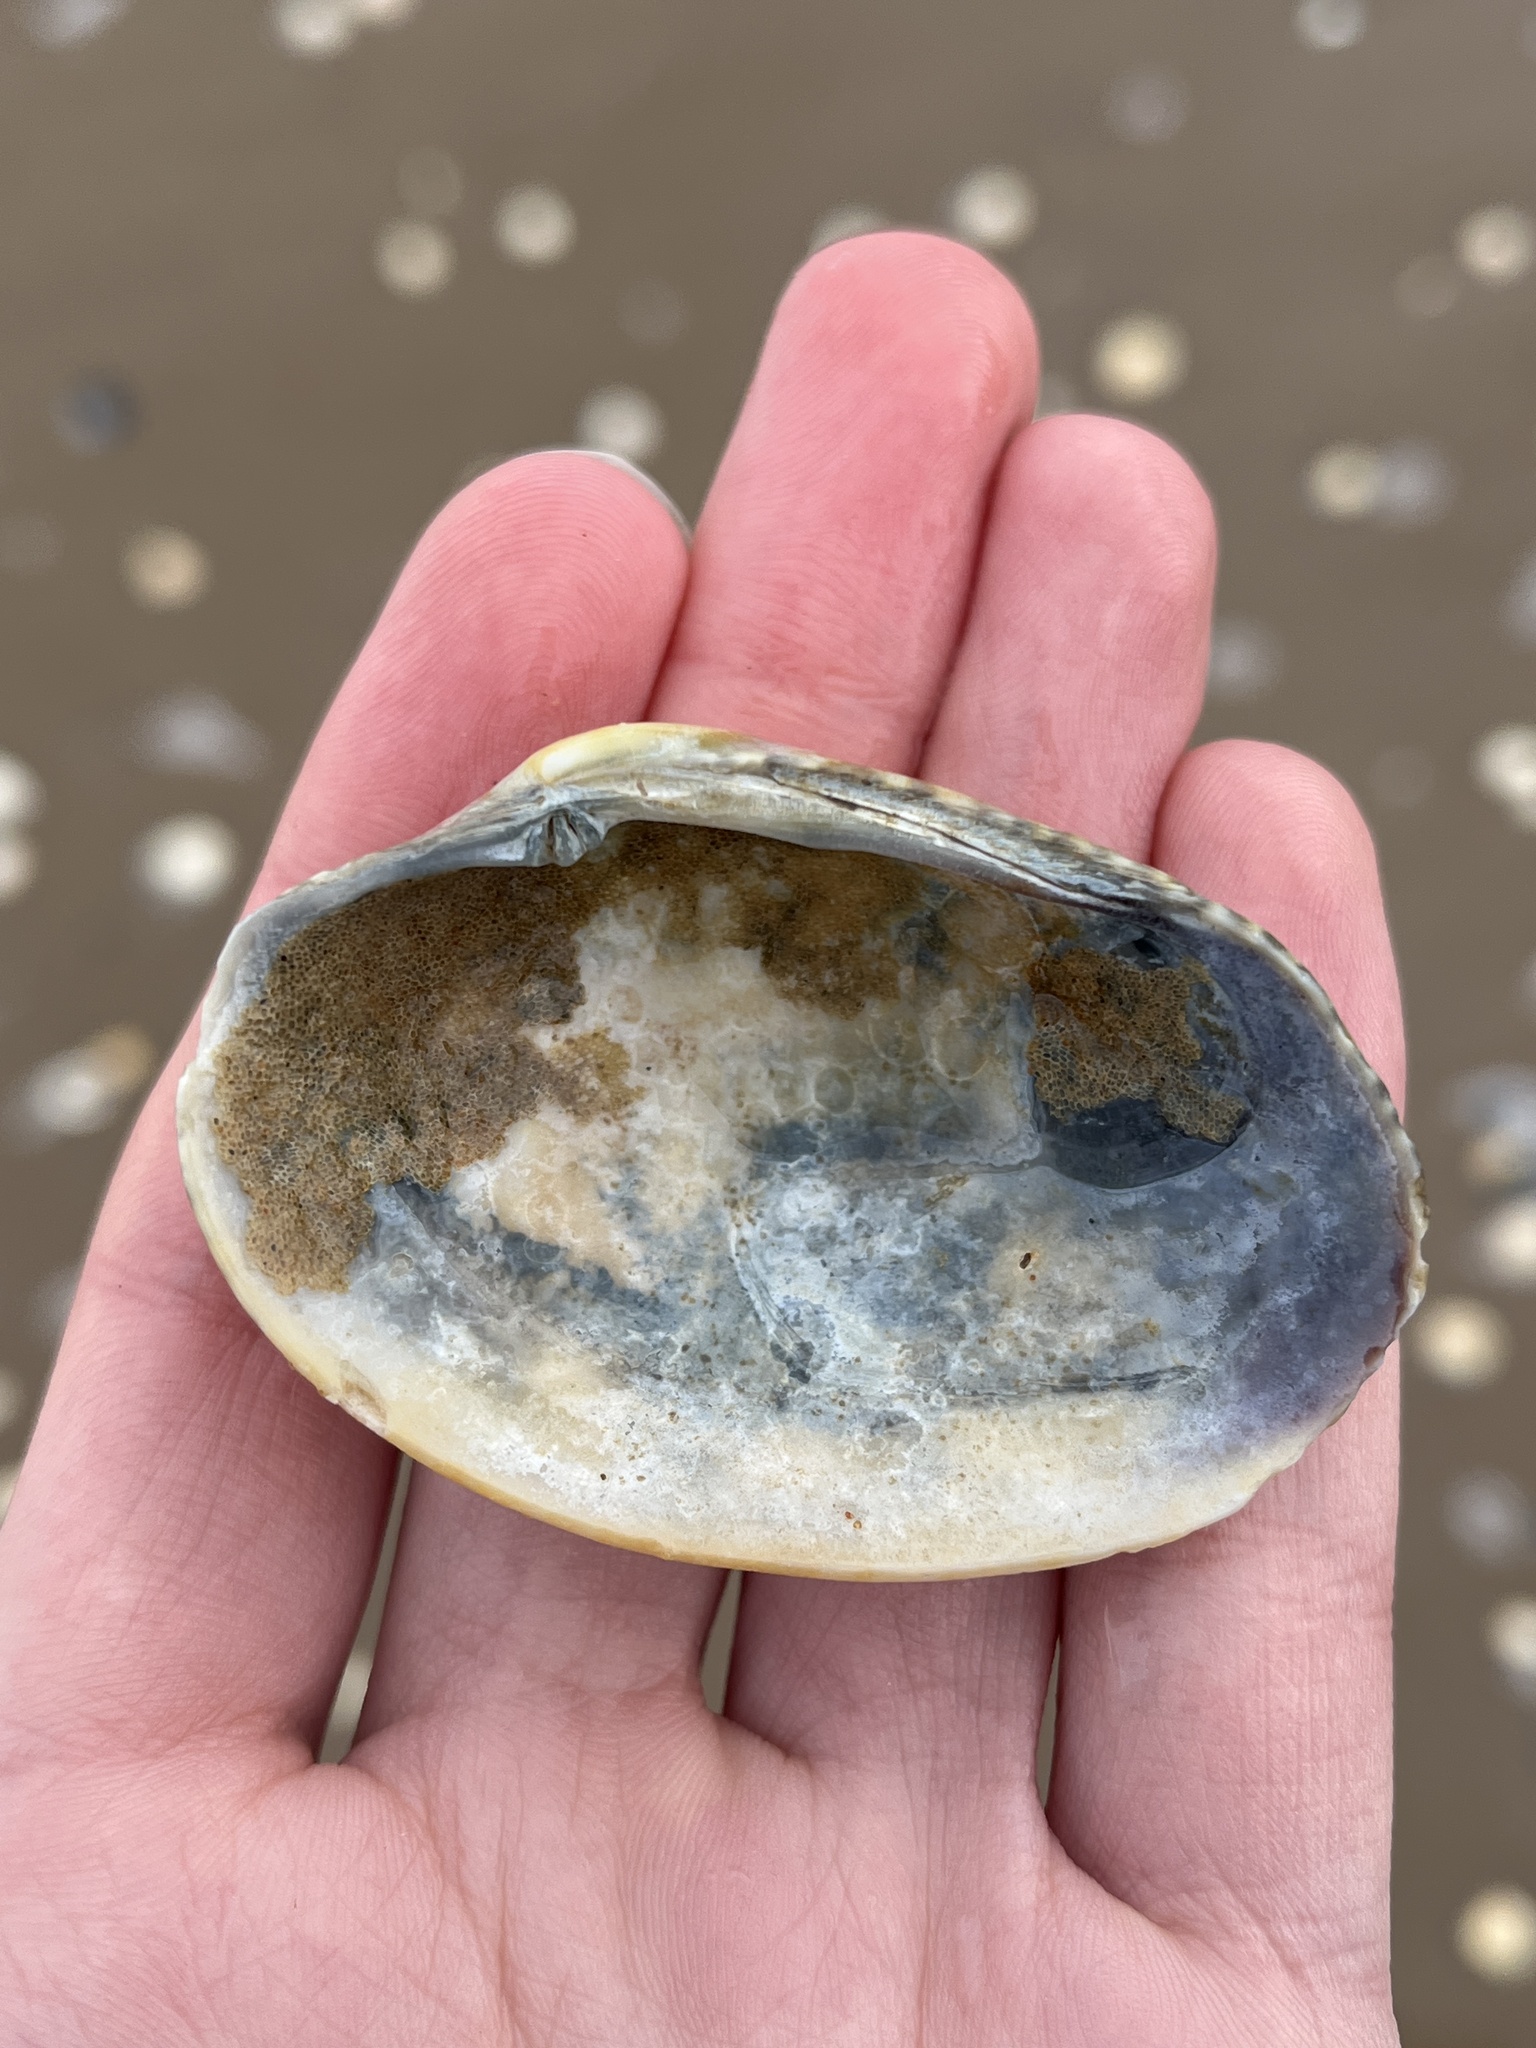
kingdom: Animalia
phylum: Mollusca
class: Bivalvia
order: Venerida
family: Veneridae
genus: Venerupis
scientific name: Venerupis corrugata
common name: Pullet carpet shell
